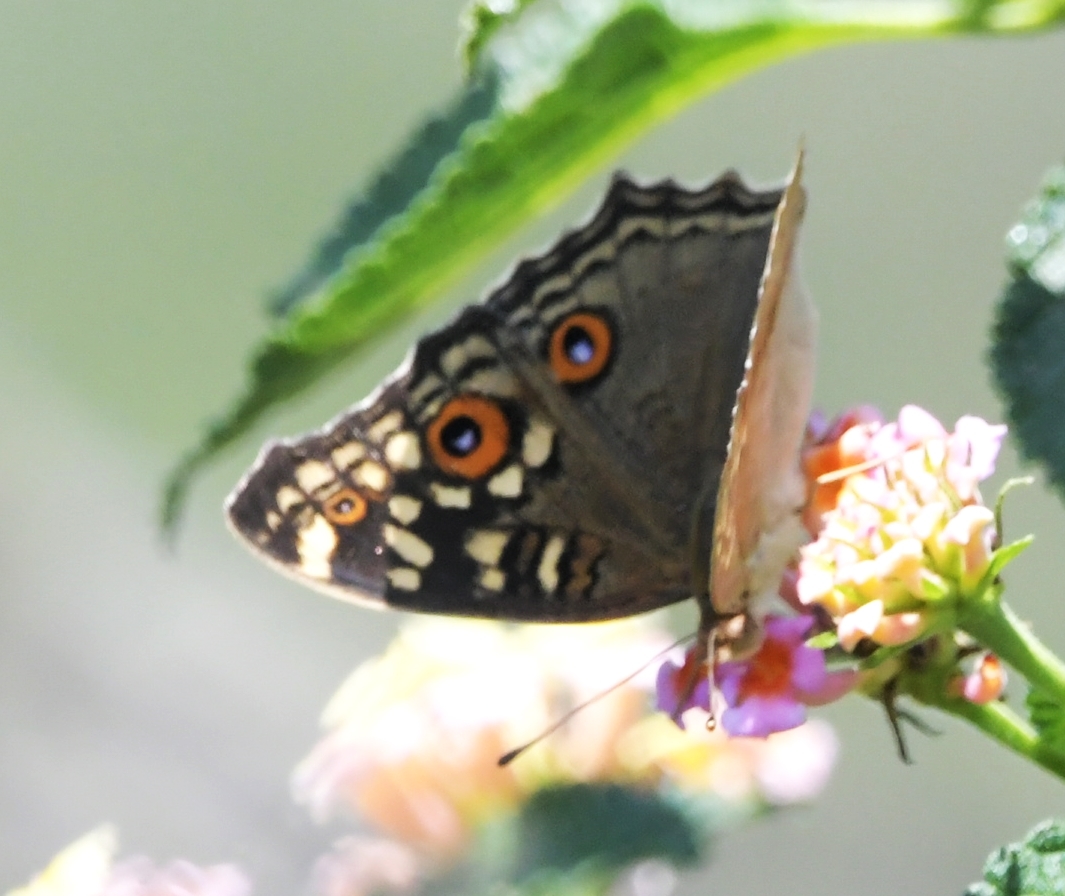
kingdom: Animalia
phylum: Arthropoda
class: Insecta
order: Lepidoptera
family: Nymphalidae
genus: Junonia
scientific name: Junonia lemonias
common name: Lemon pansy
